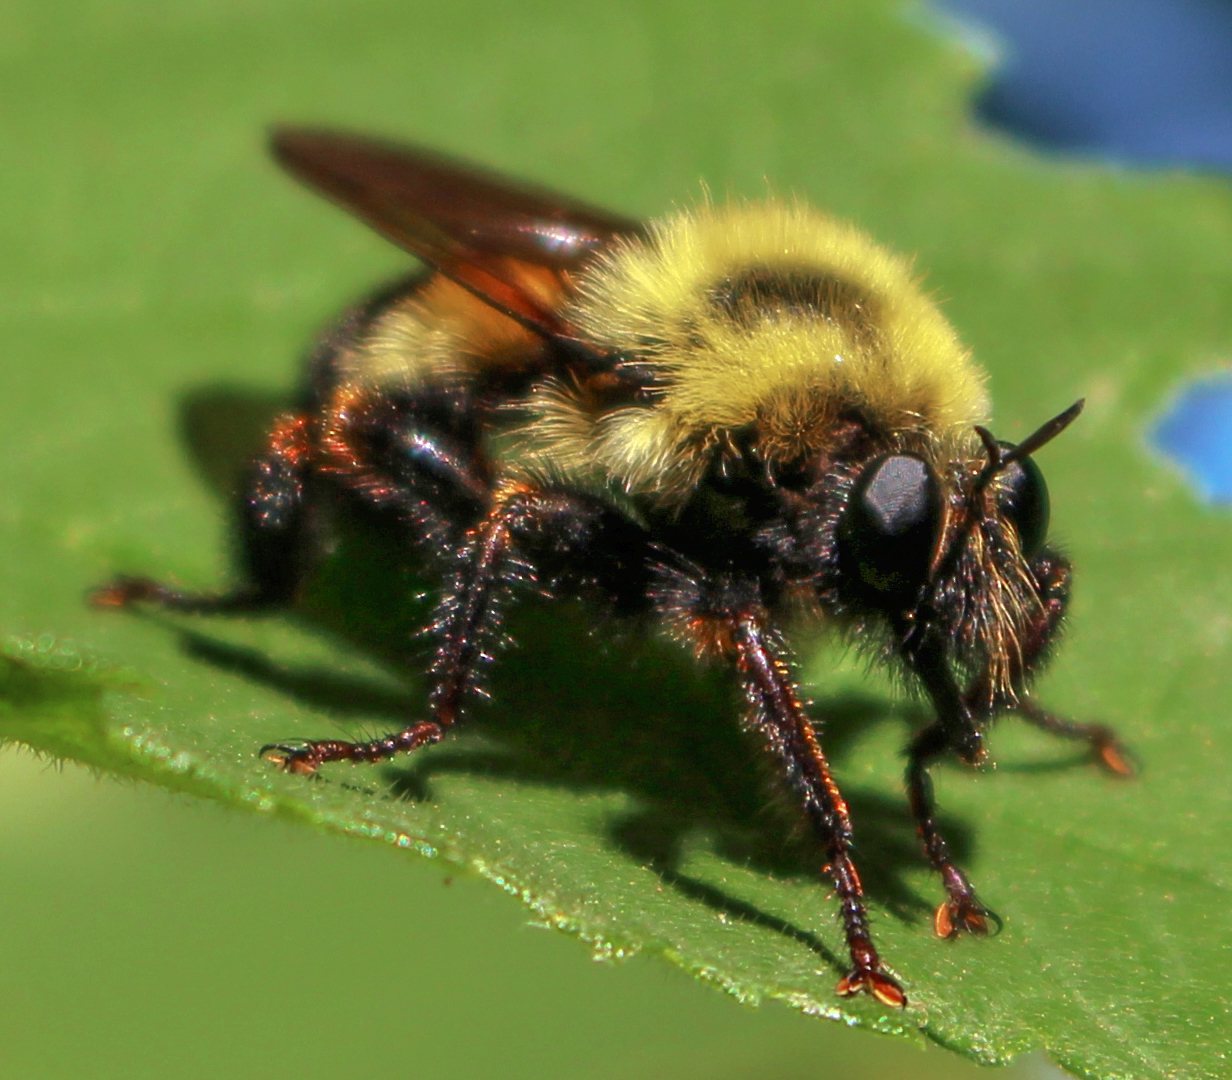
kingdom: Animalia
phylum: Arthropoda
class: Insecta
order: Diptera
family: Asilidae
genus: Laphria
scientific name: Laphria thoracica
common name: Bumble bee mimic robber fly
